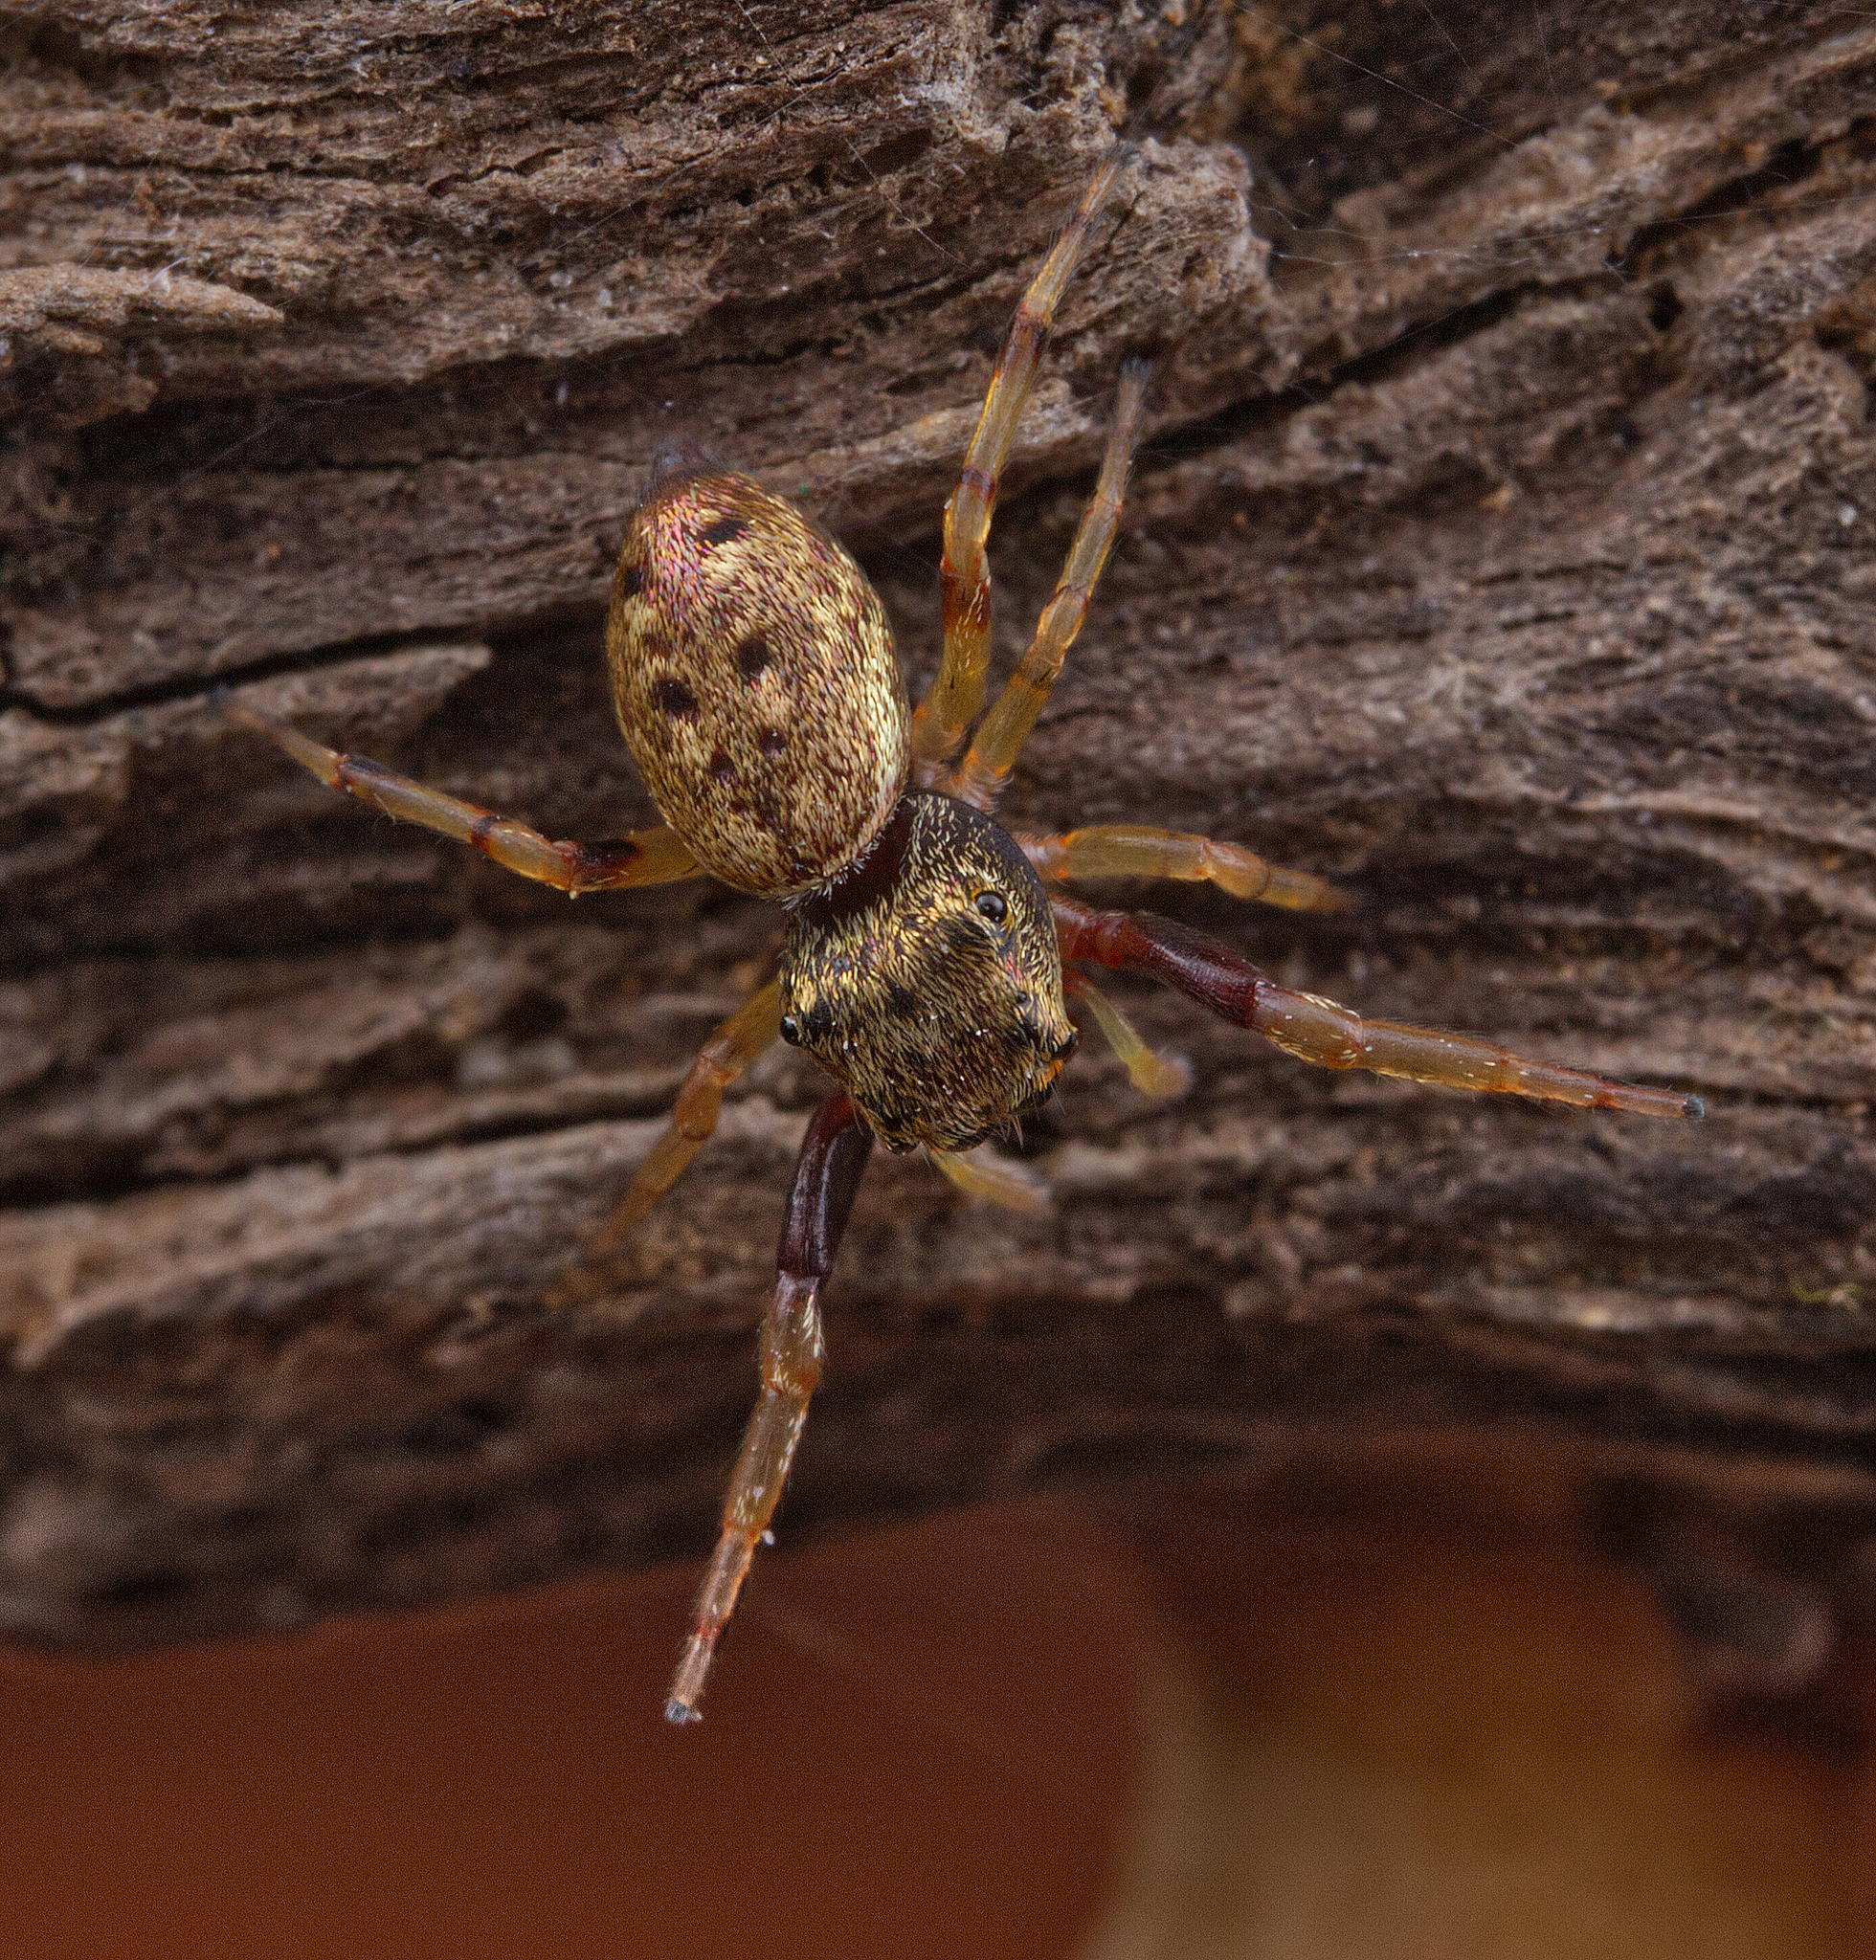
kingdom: Animalia
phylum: Arthropoda
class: Arachnida
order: Araneae
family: Salticidae
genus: Zygoballus
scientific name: Zygoballus rufipes
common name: Jumping spiders
